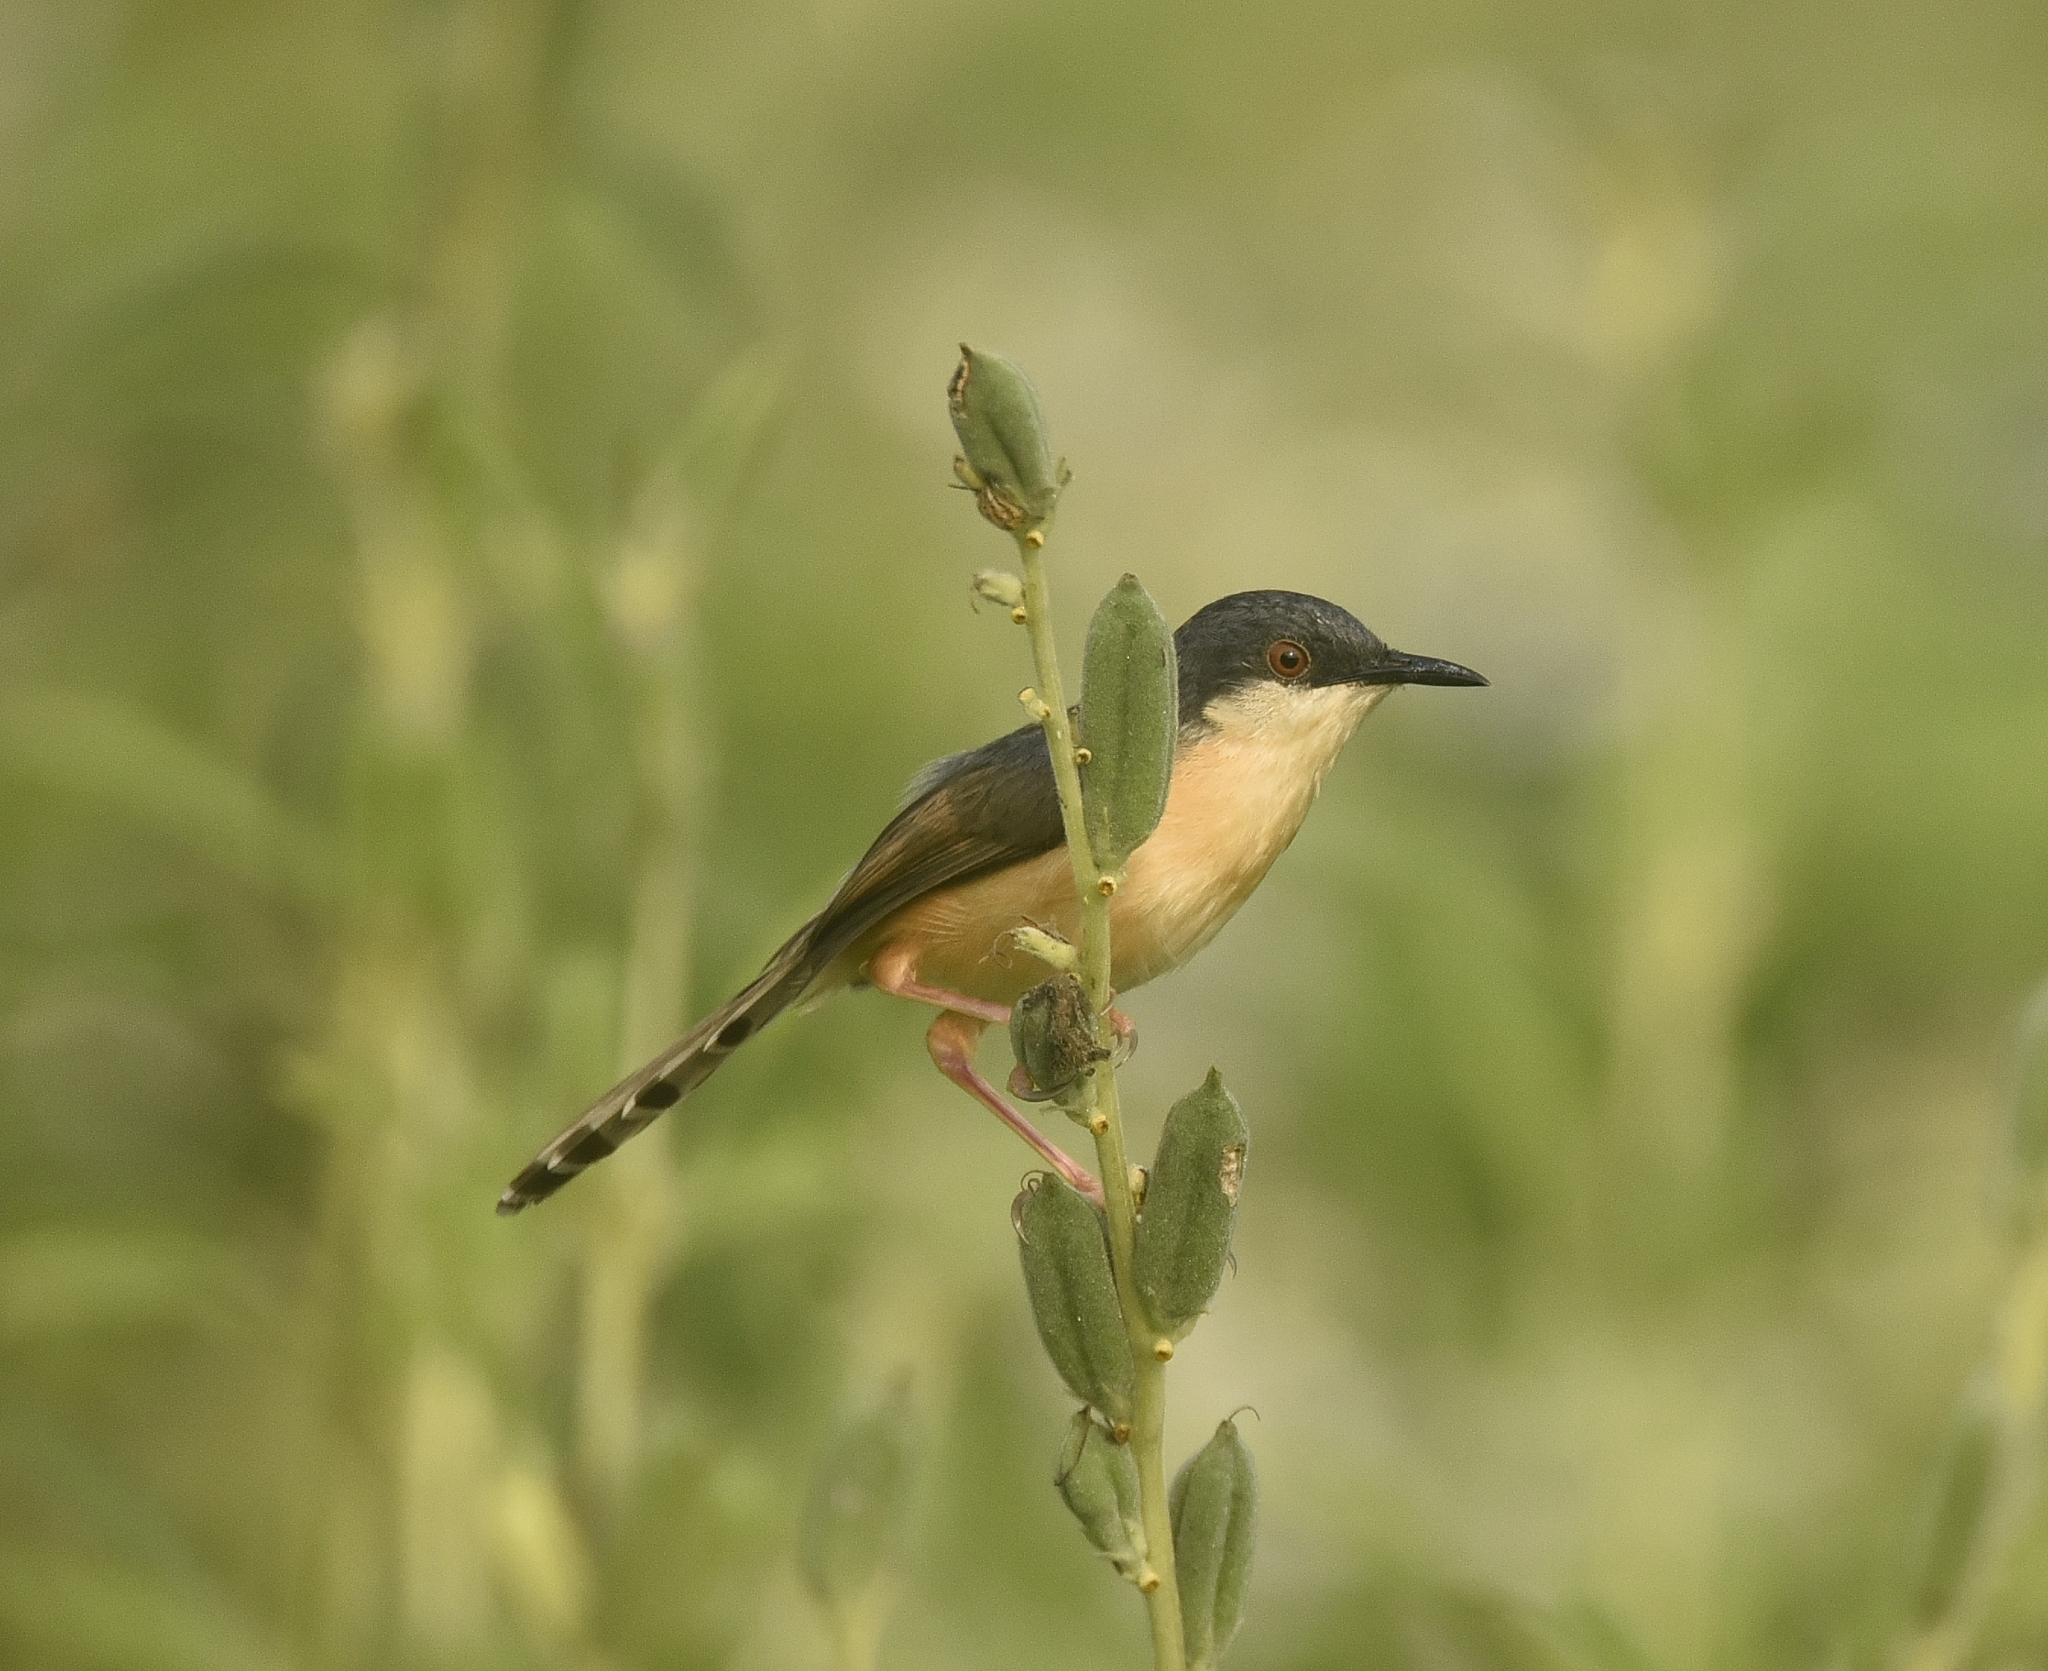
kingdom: Animalia
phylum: Chordata
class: Aves
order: Passeriformes
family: Cisticolidae
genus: Prinia
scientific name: Prinia socialis
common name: Ashy prinia
